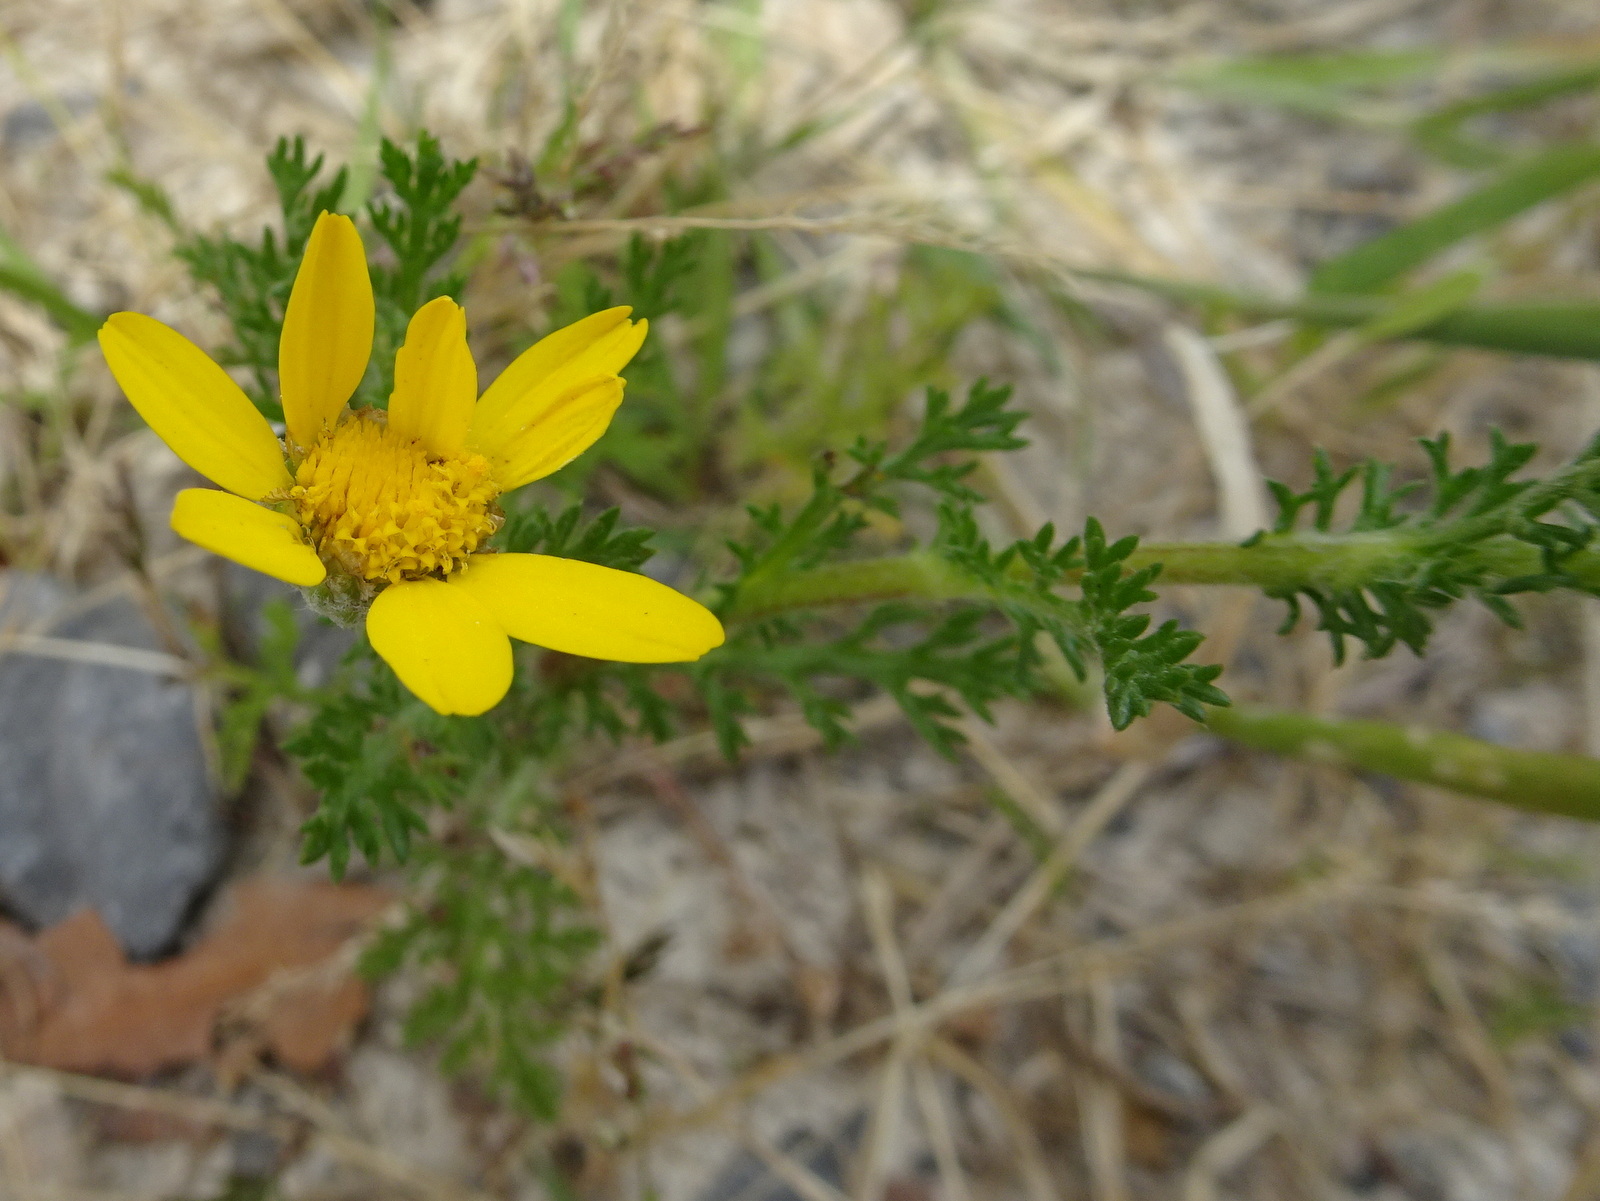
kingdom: Plantae
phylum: Tracheophyta
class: Magnoliopsida
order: Asterales
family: Asteraceae
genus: Anacyclus
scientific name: Anacyclus radiatus
